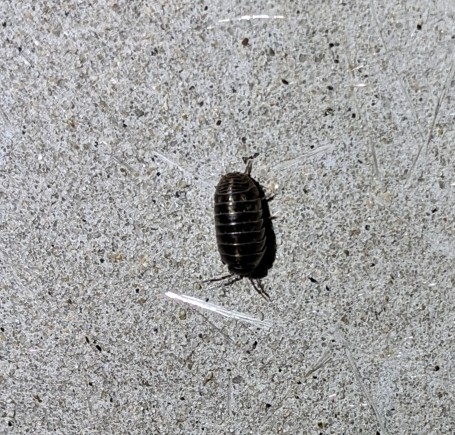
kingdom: Animalia
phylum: Arthropoda
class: Malacostraca
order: Isopoda
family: Armadillidiidae
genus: Armadillidium
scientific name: Armadillidium vulgare
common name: Common pill woodlouse
